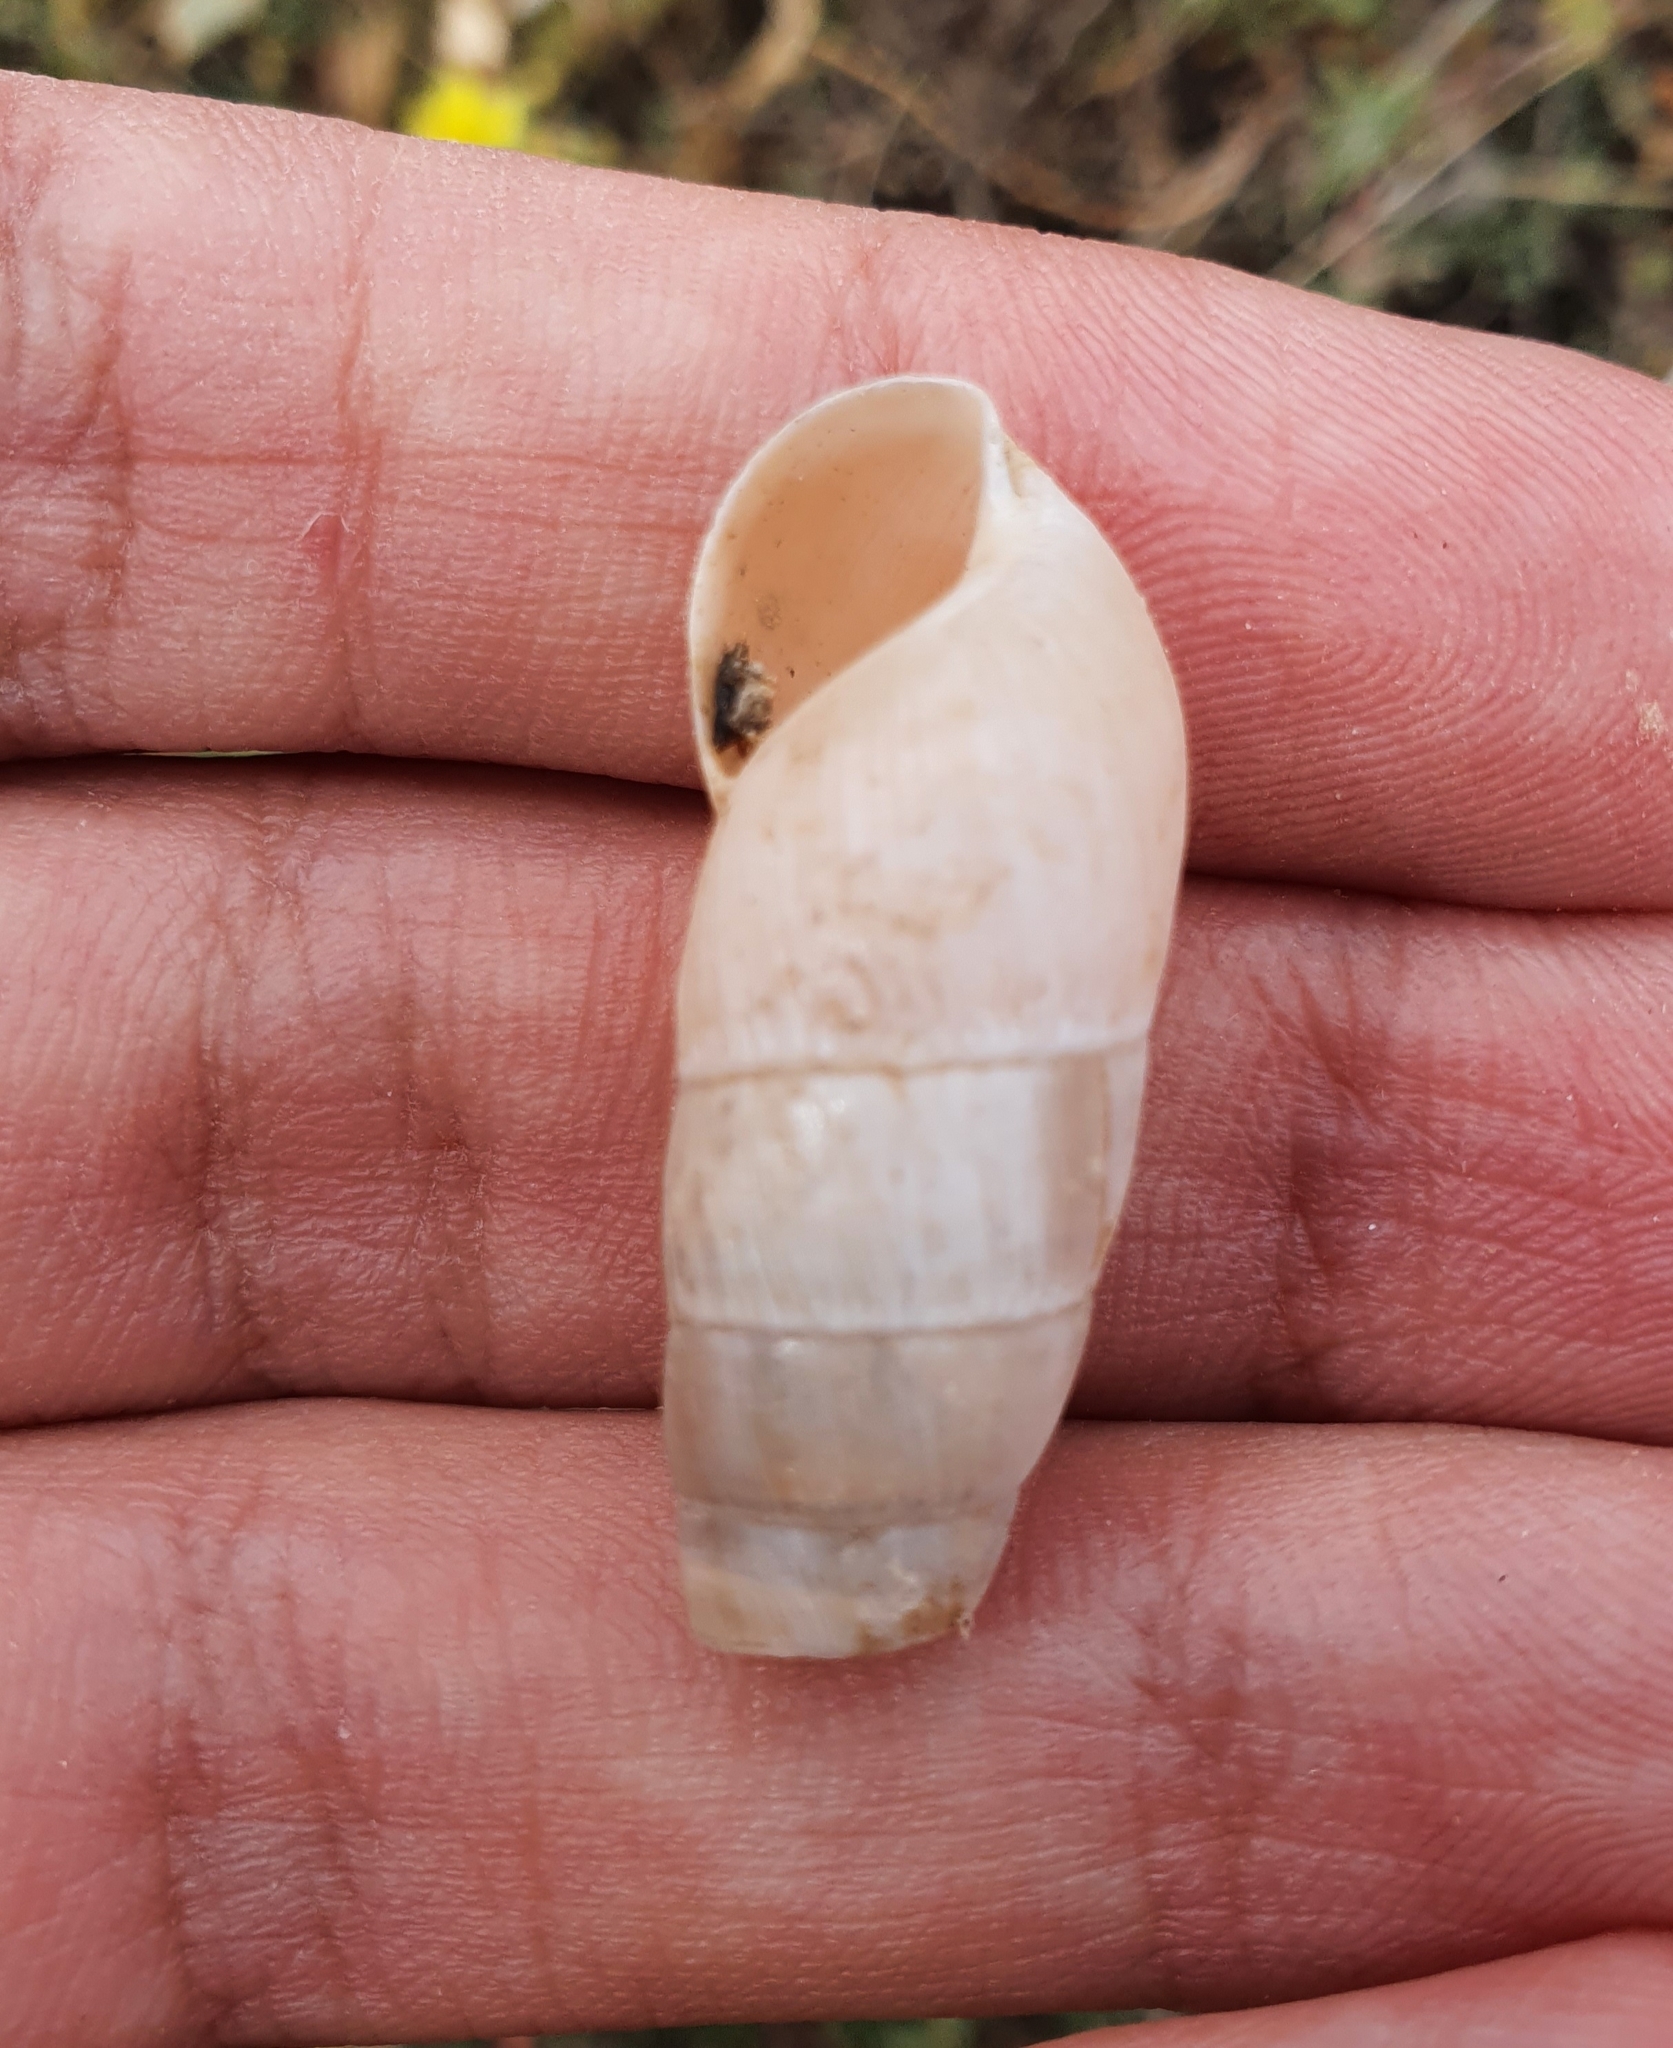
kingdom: Animalia
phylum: Mollusca
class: Gastropoda
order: Stylommatophora
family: Achatinidae
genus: Rumina
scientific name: Rumina decollata
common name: Decollate snail
